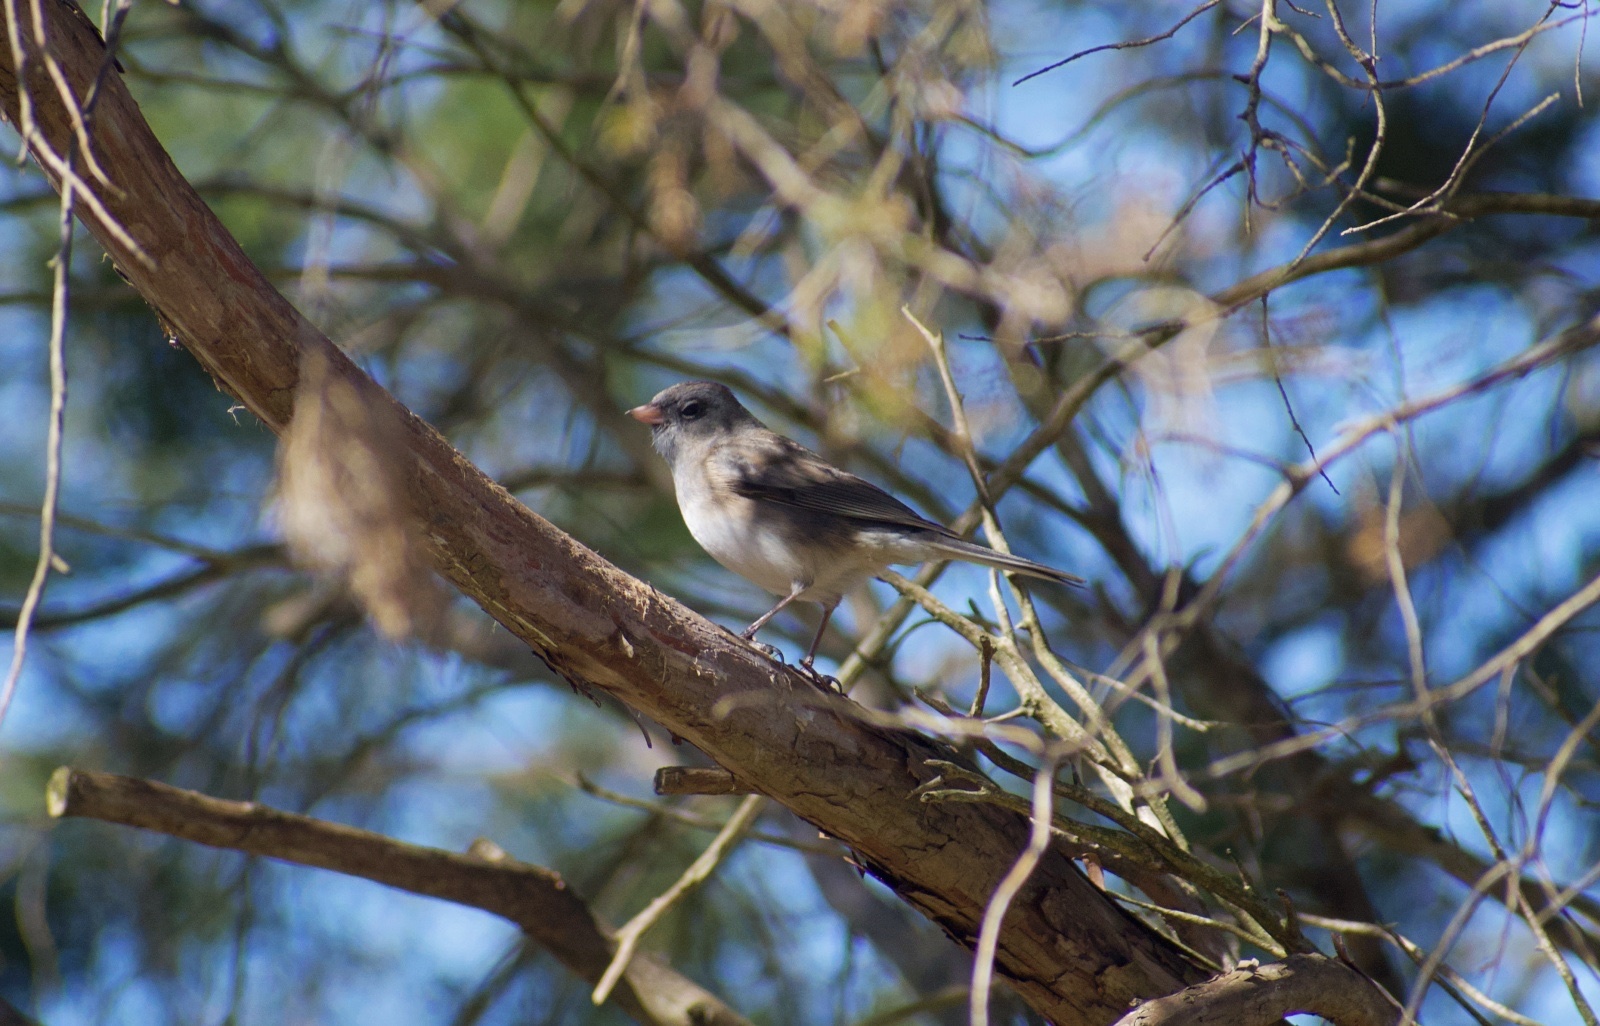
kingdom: Animalia
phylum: Chordata
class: Aves
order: Passeriformes
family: Passerellidae
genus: Junco
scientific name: Junco hyemalis
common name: Dark-eyed junco
